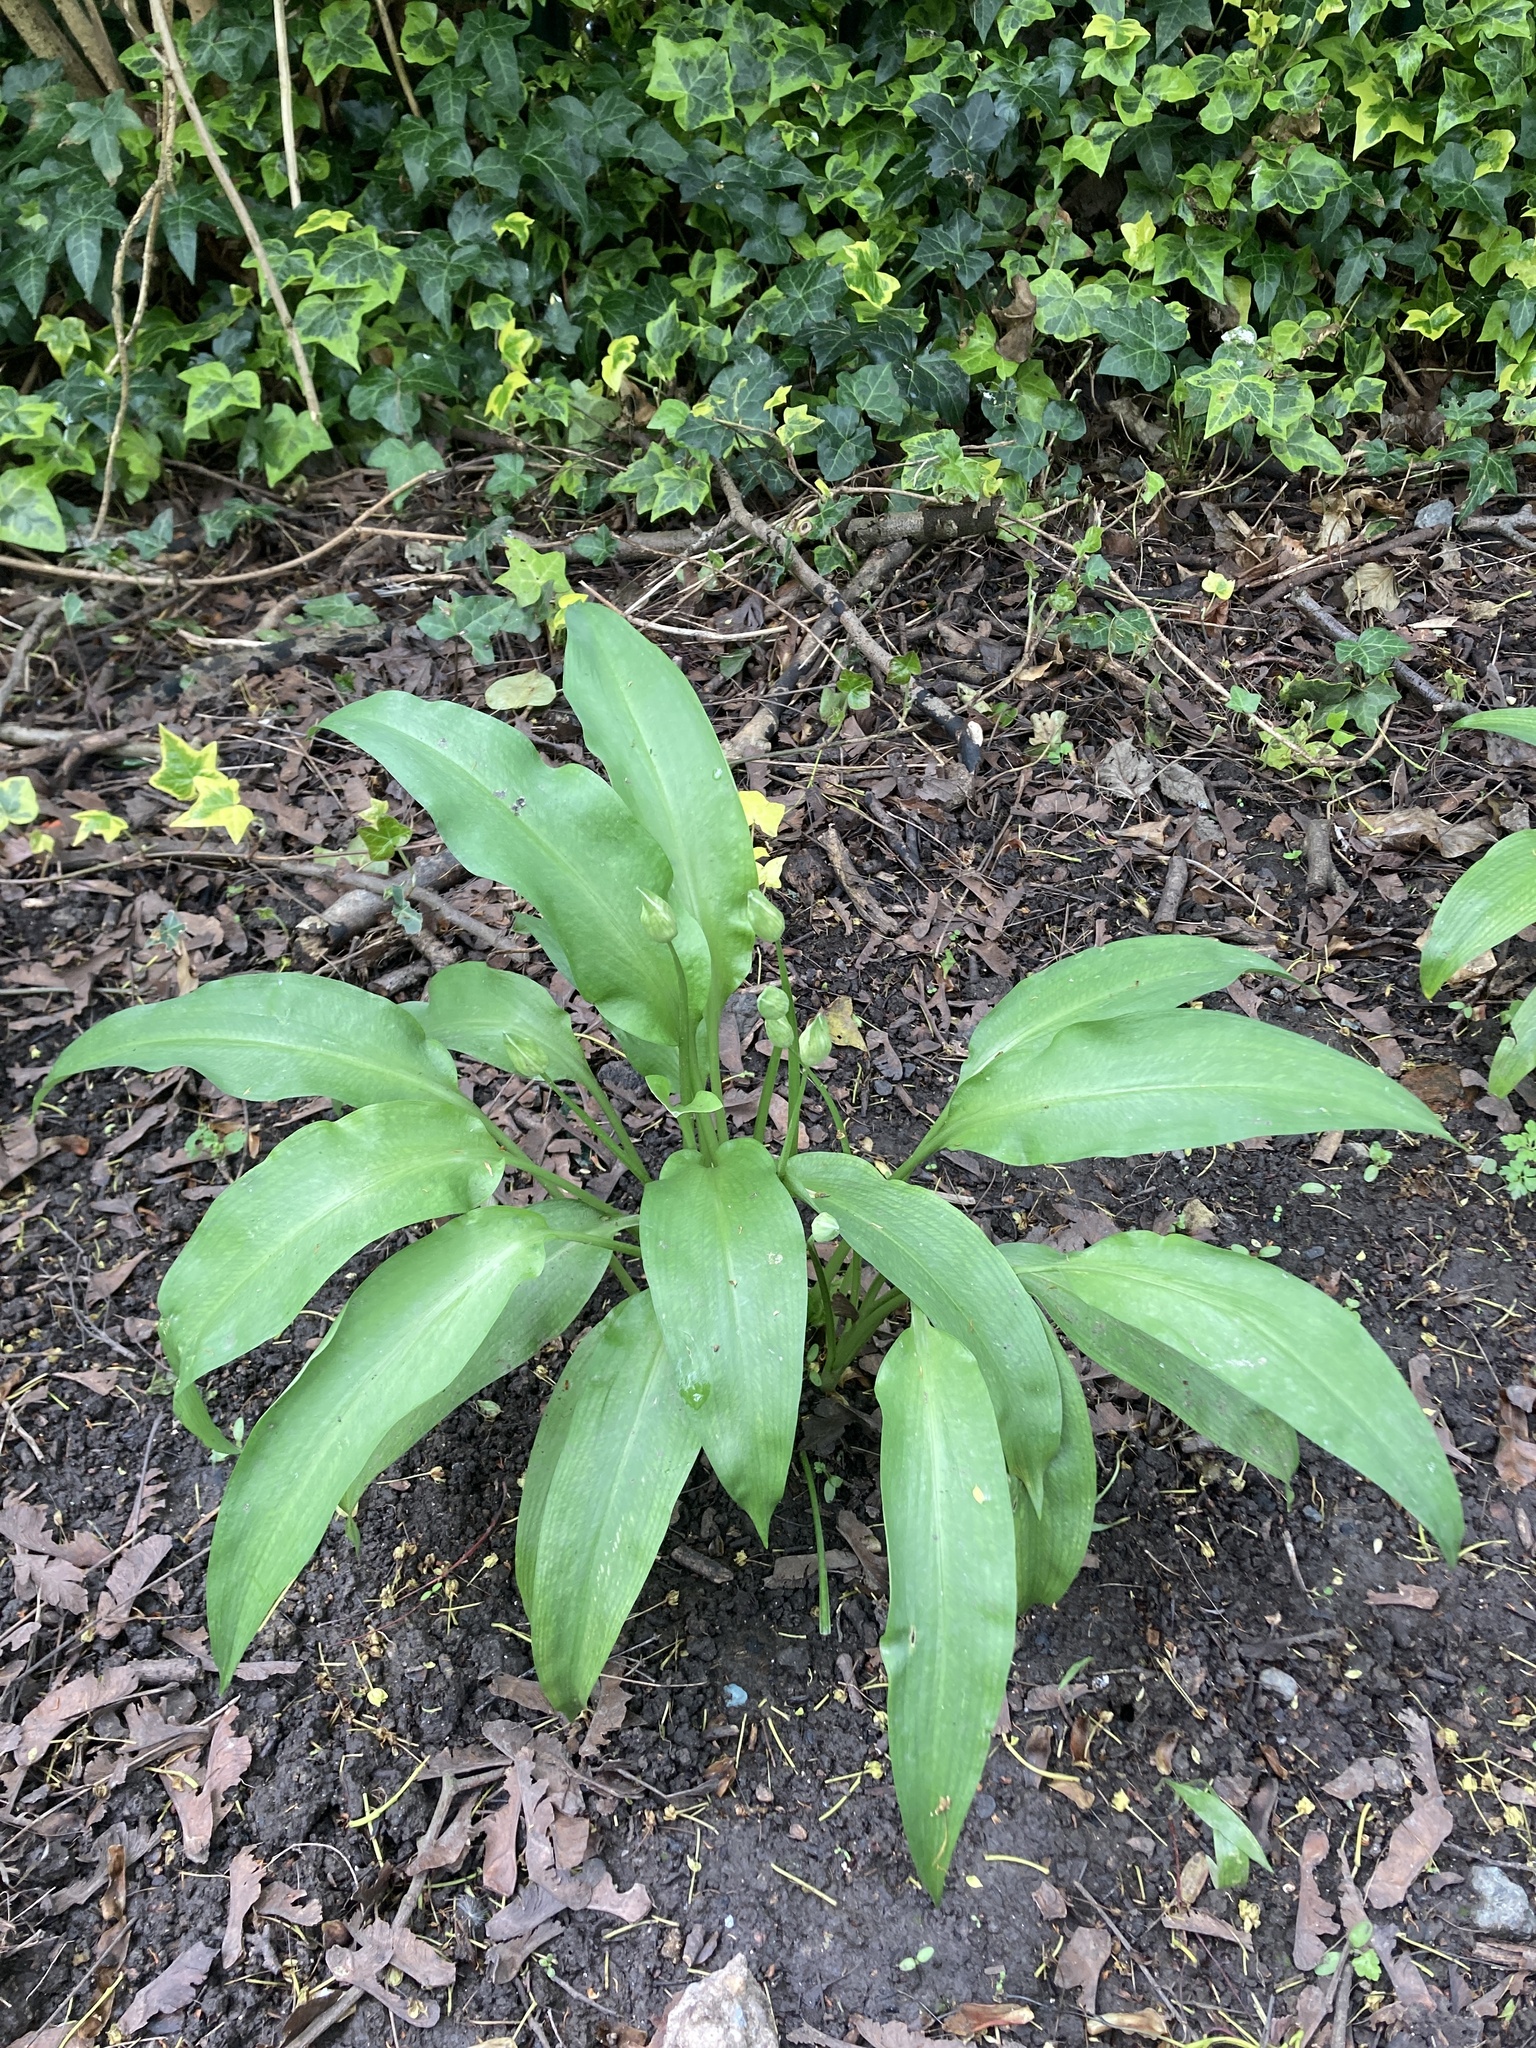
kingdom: Plantae
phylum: Tracheophyta
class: Liliopsida
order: Asparagales
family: Amaryllidaceae
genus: Allium
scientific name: Allium ursinum
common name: Ramsons
